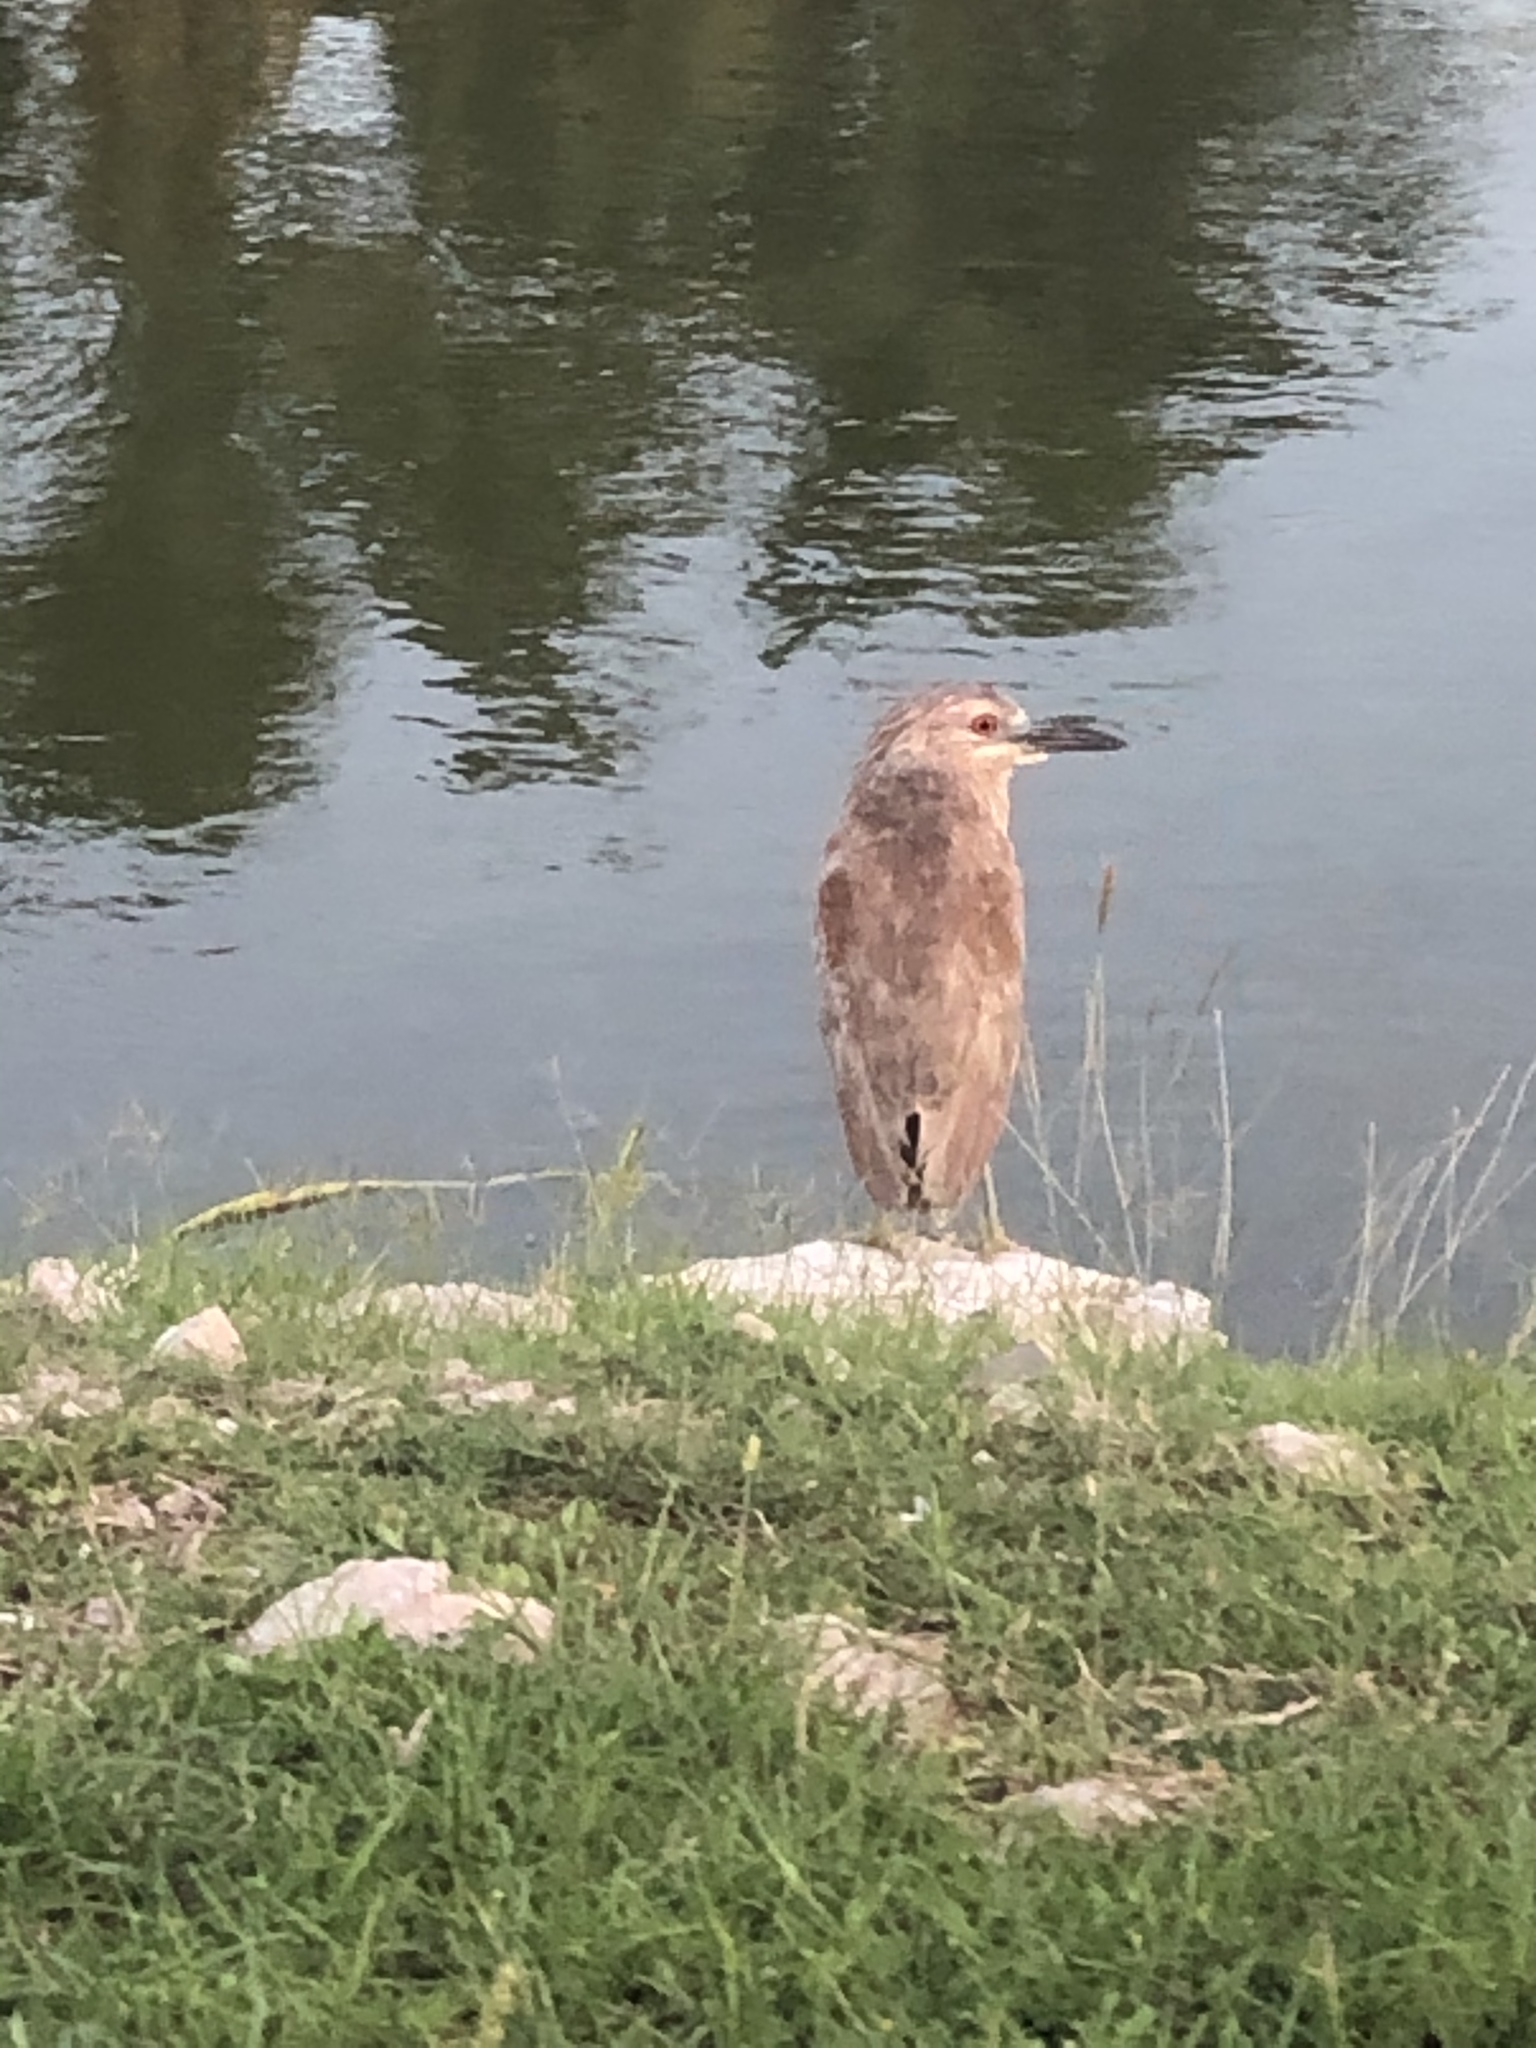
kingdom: Animalia
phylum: Chordata
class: Aves
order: Pelecaniformes
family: Ardeidae
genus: Nyctanassa
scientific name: Nyctanassa violacea
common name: Yellow-crowned night heron
